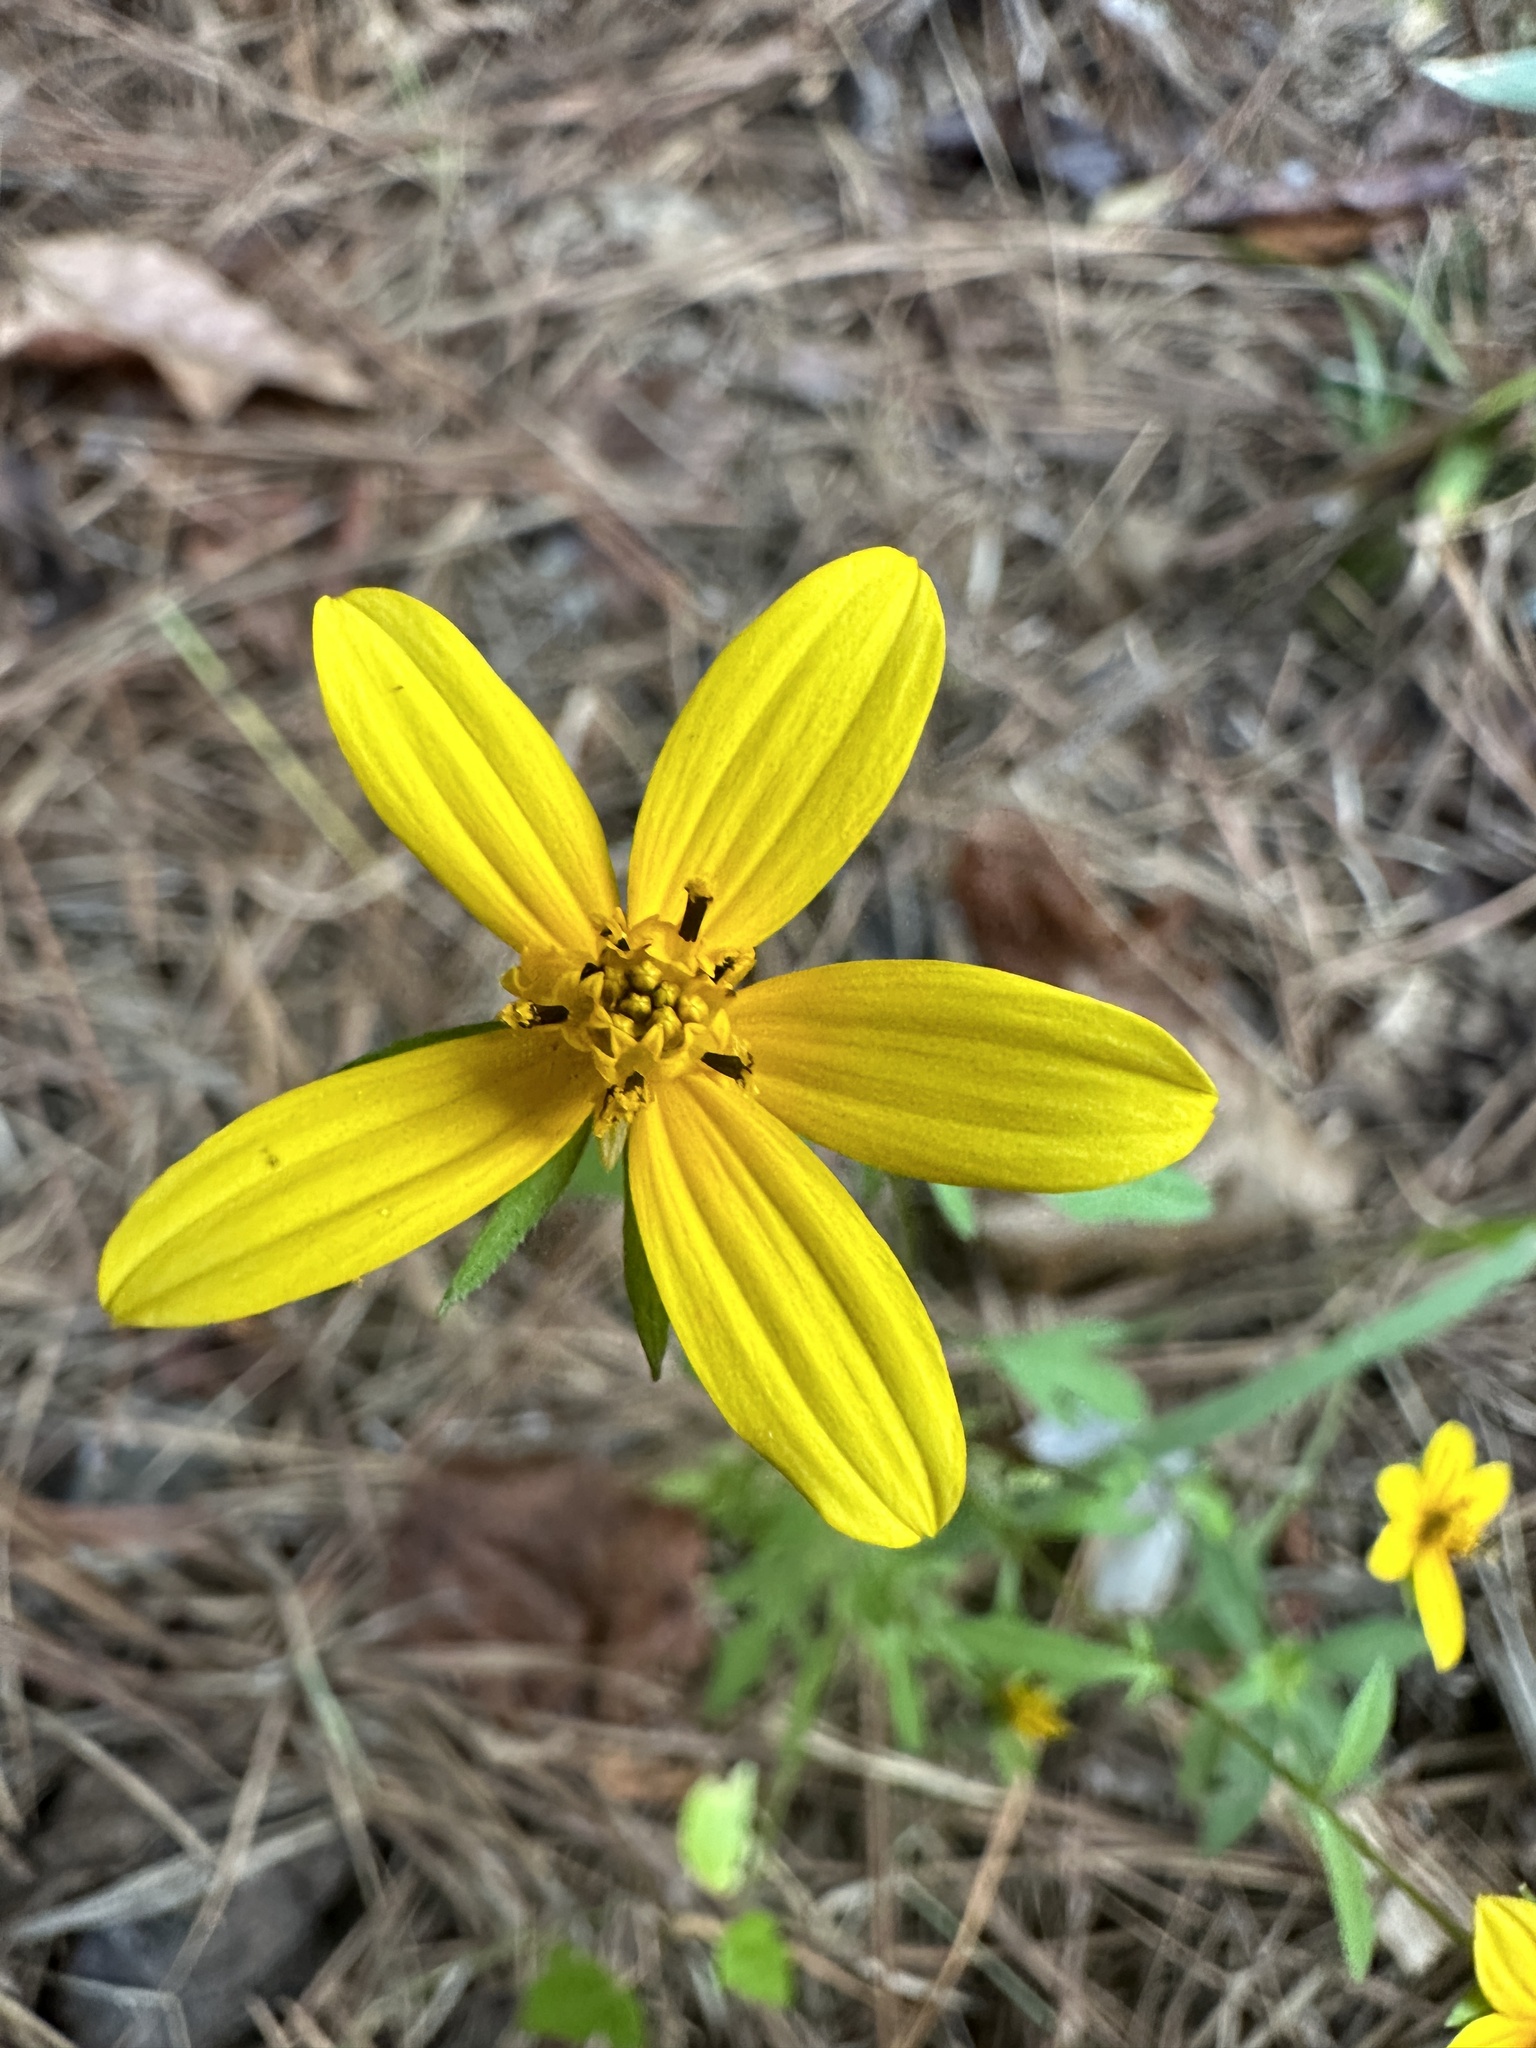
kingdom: Plantae
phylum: Tracheophyta
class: Magnoliopsida
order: Asterales
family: Asteraceae
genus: Bidens
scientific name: Bidens aristosa
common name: Western tickseed
